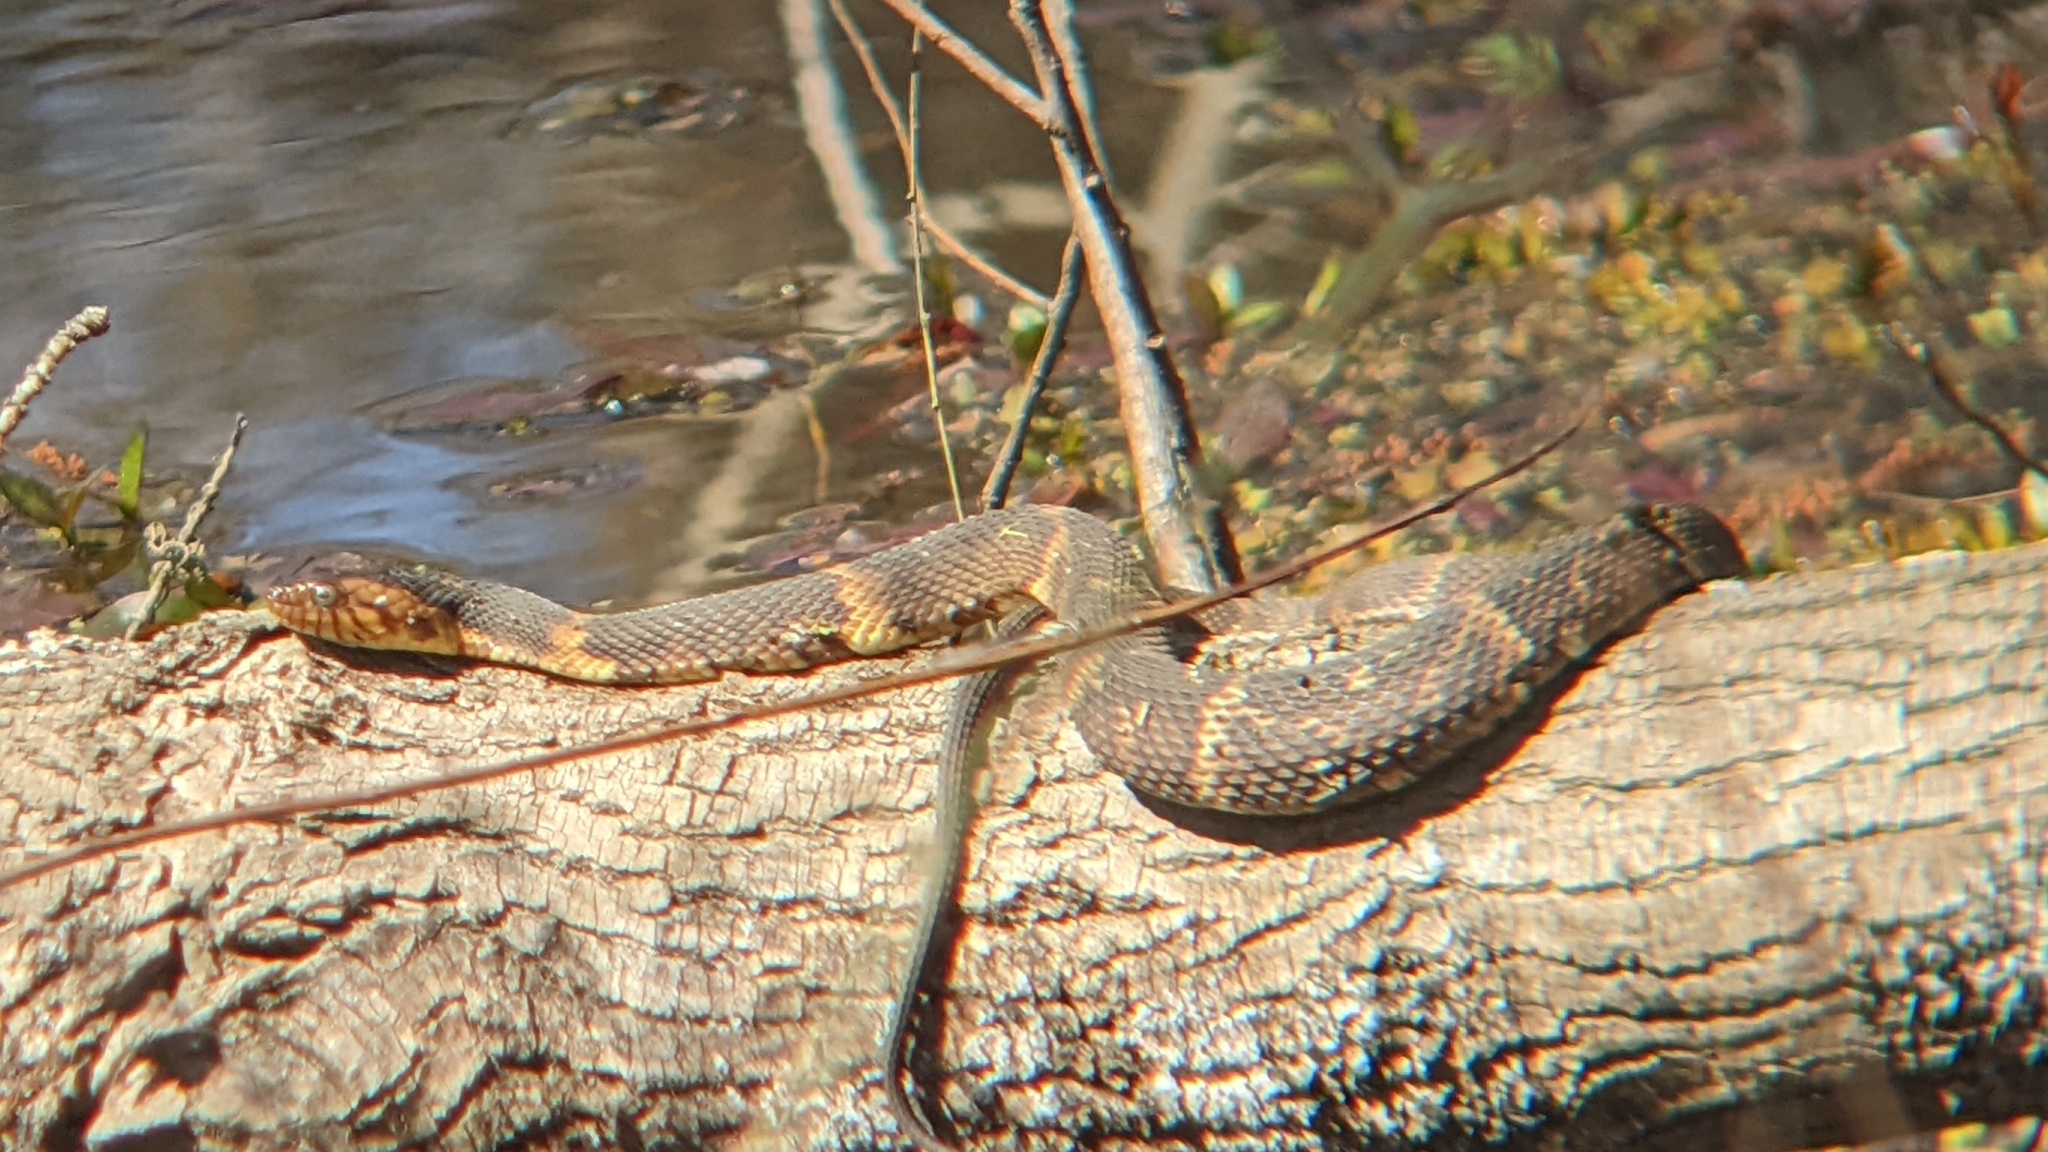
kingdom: Animalia
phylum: Chordata
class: Squamata
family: Colubridae
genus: Nerodia
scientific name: Nerodia fasciata
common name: Southern water snake
